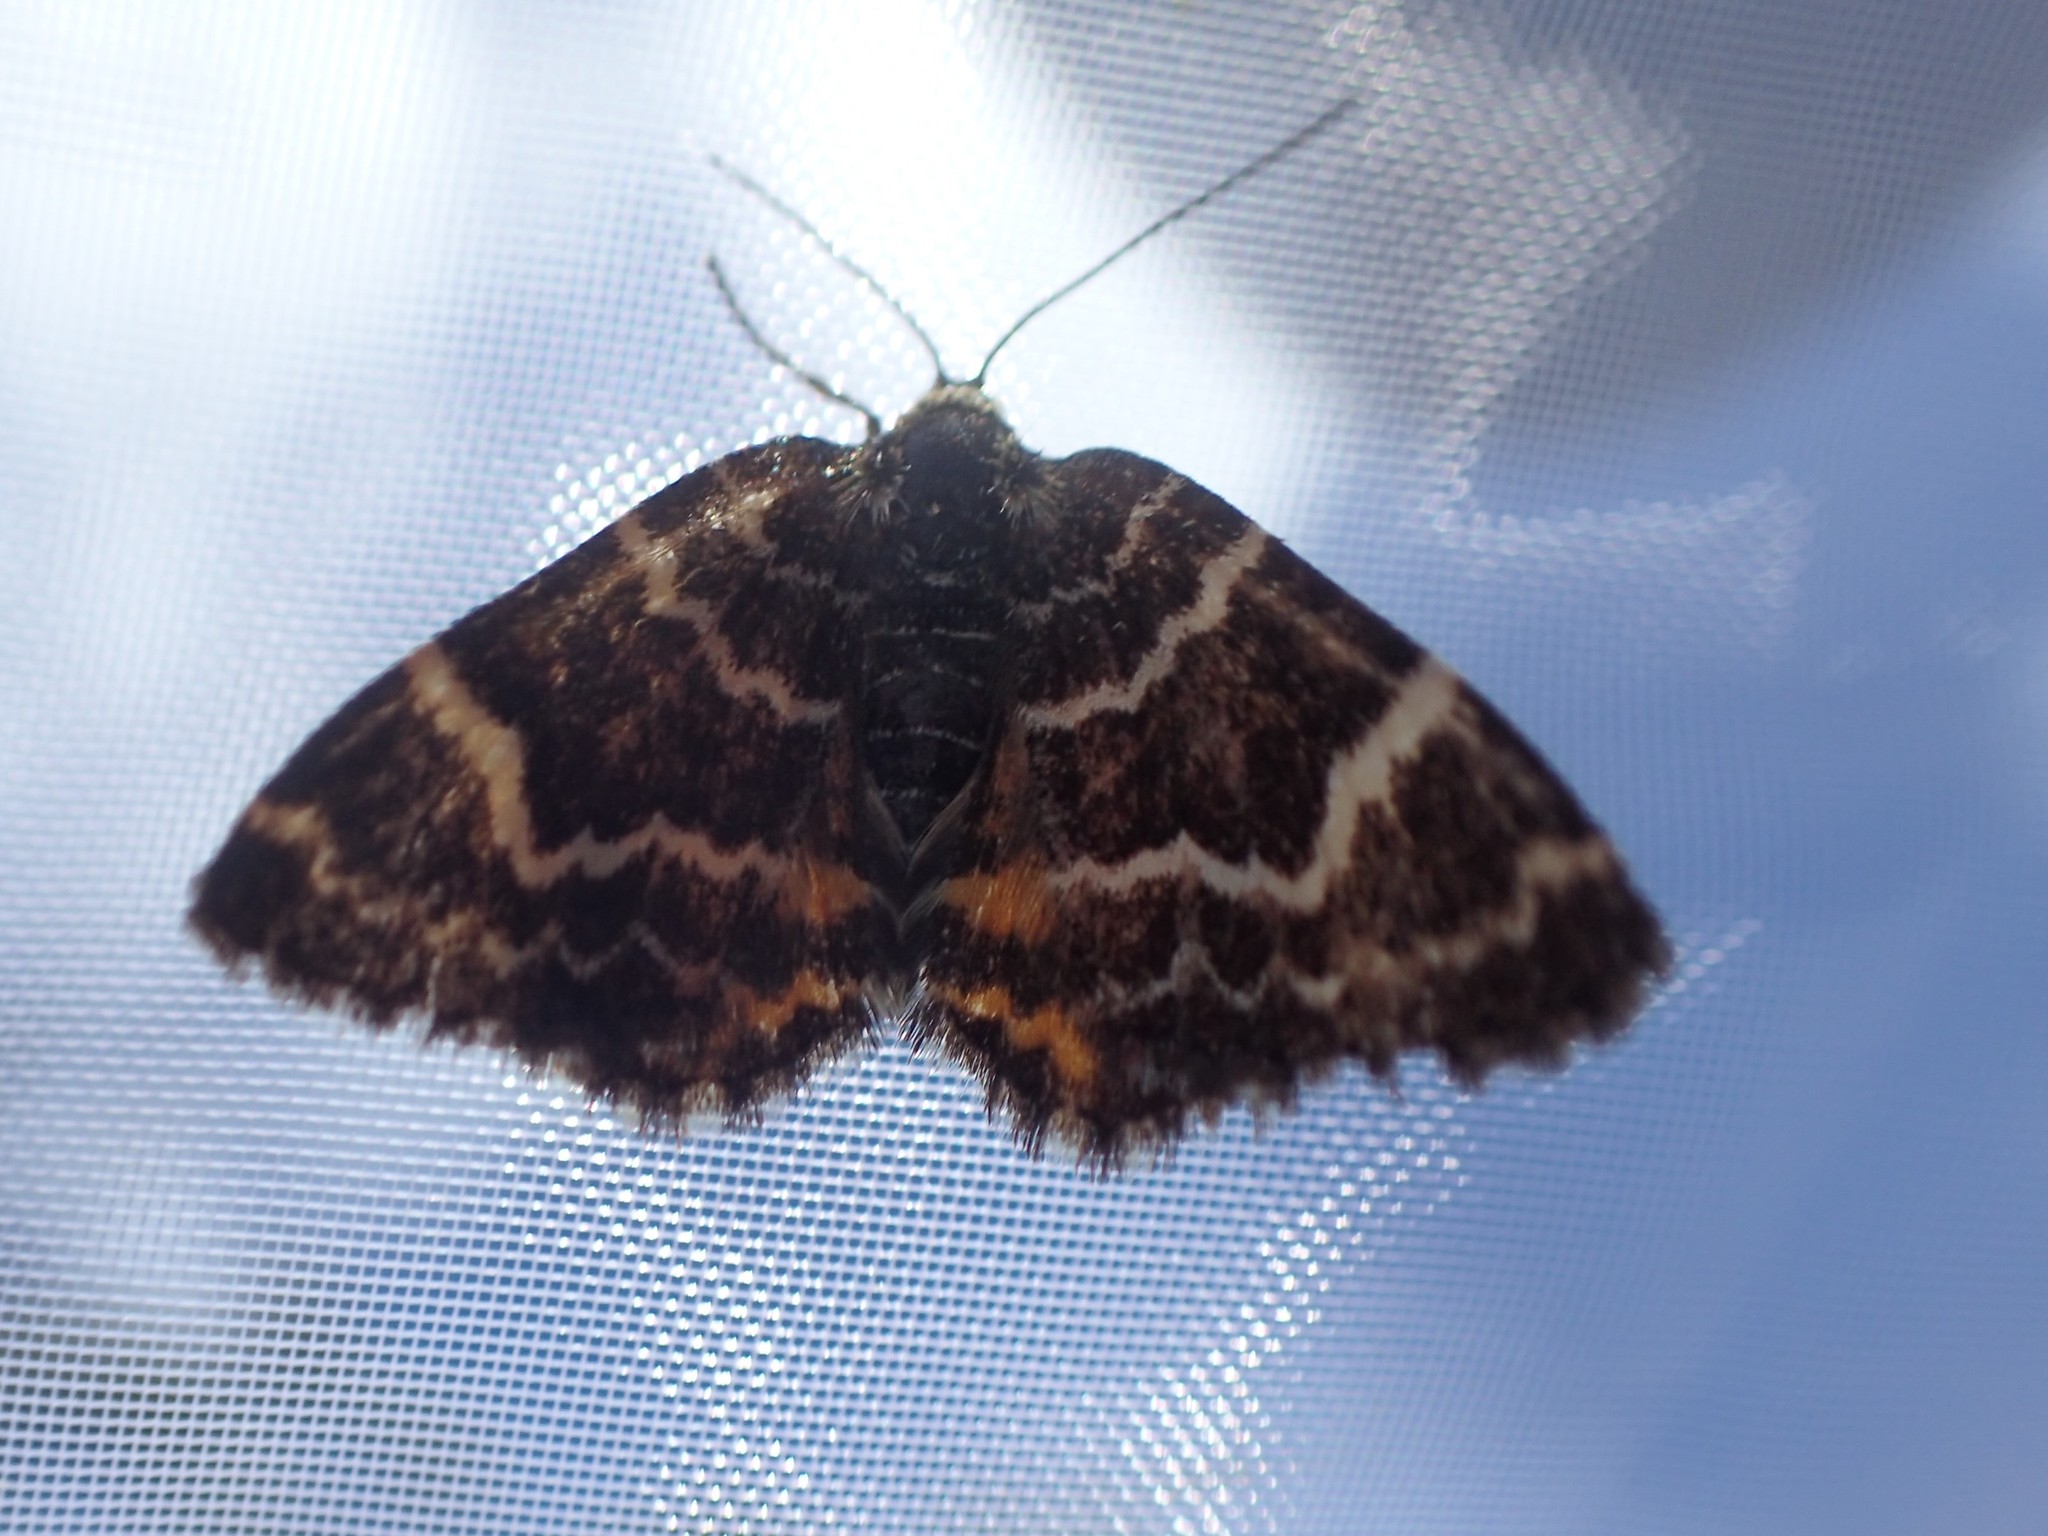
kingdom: Animalia
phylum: Arthropoda
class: Insecta
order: Lepidoptera
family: Geometridae
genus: Chrysolarentia
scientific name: Chrysolarentia polycarpa
